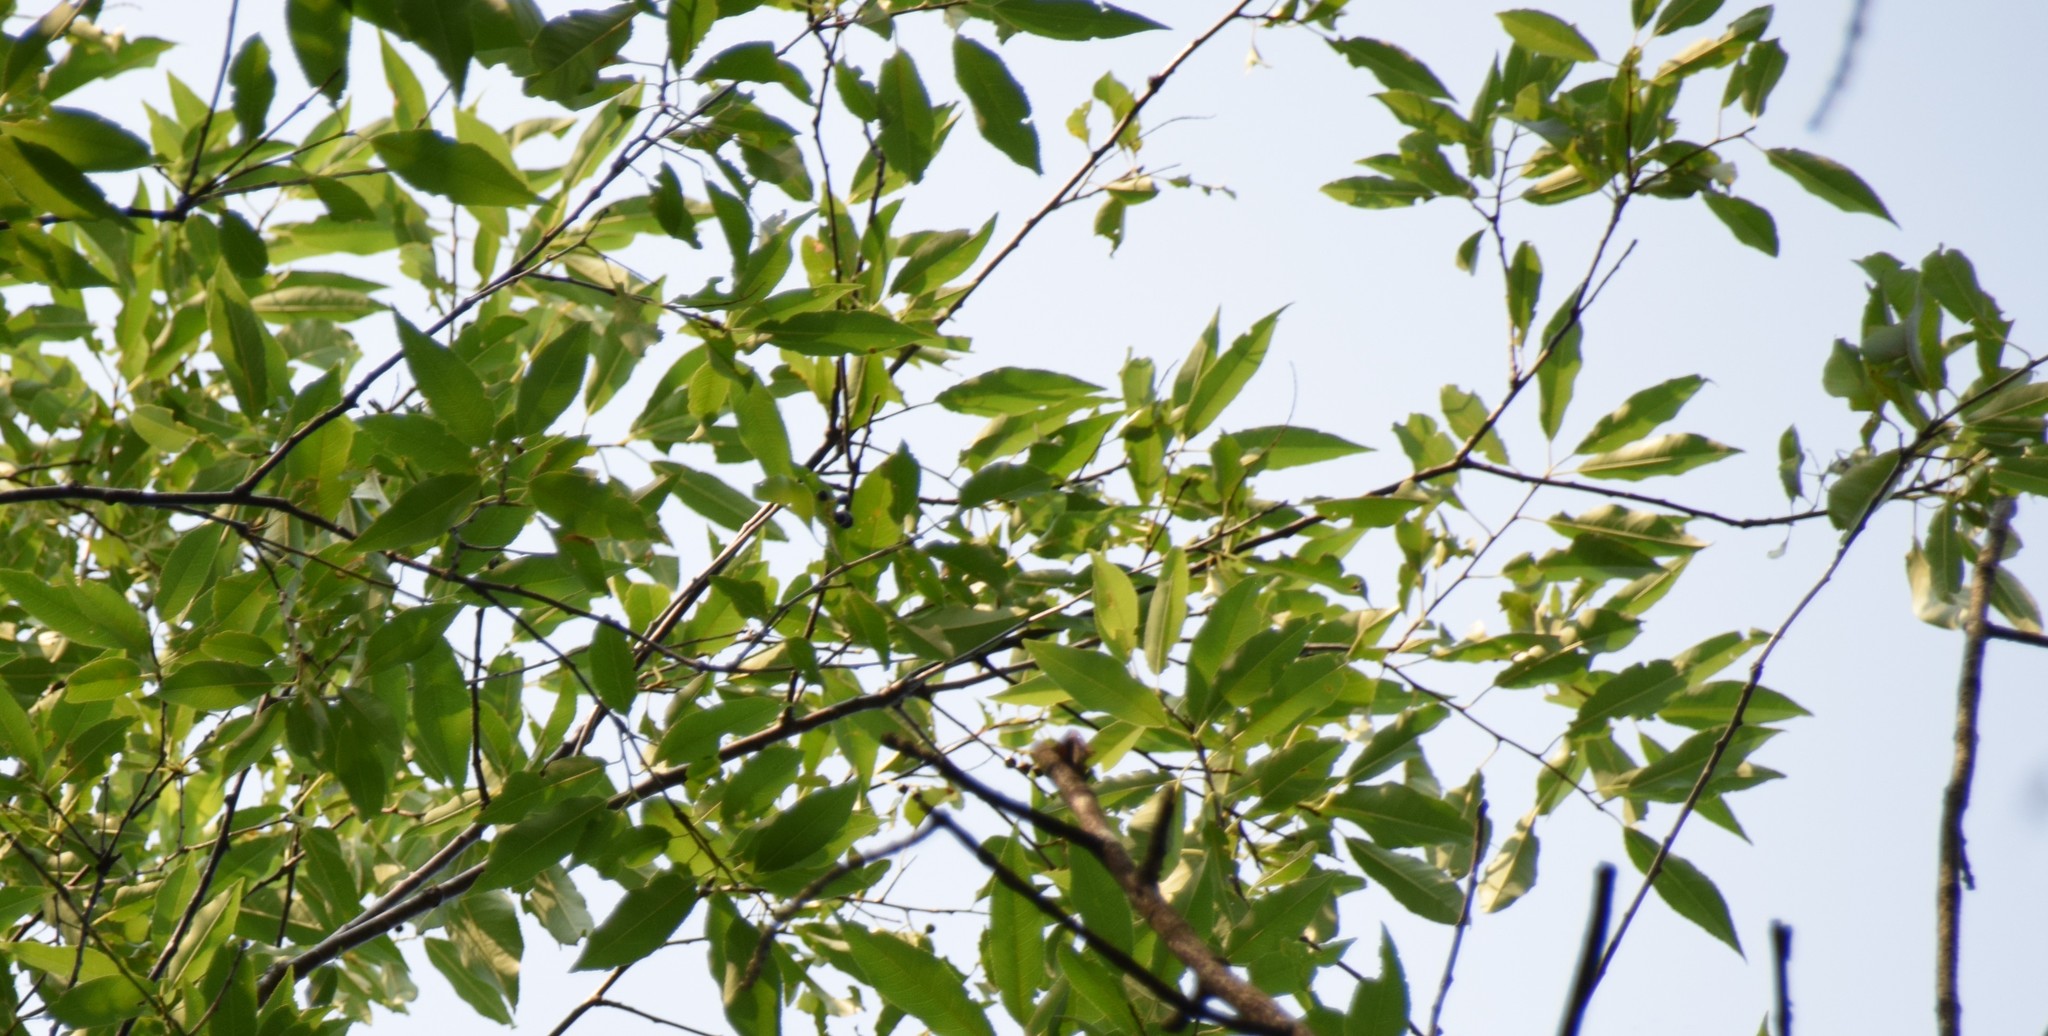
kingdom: Plantae
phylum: Tracheophyta
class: Magnoliopsida
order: Rosales
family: Rosaceae
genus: Prunus
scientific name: Prunus serotina
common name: Black cherry
